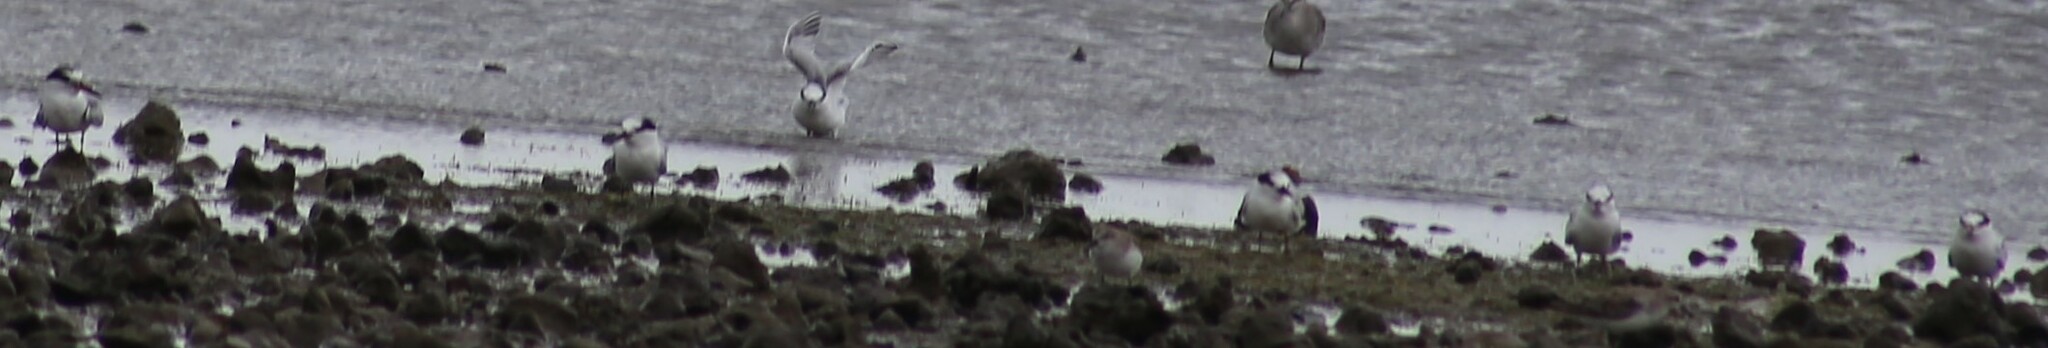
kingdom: Animalia
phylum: Chordata
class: Aves
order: Charadriiformes
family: Laridae
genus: Sternula
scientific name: Sternula albifrons
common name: Little tern
